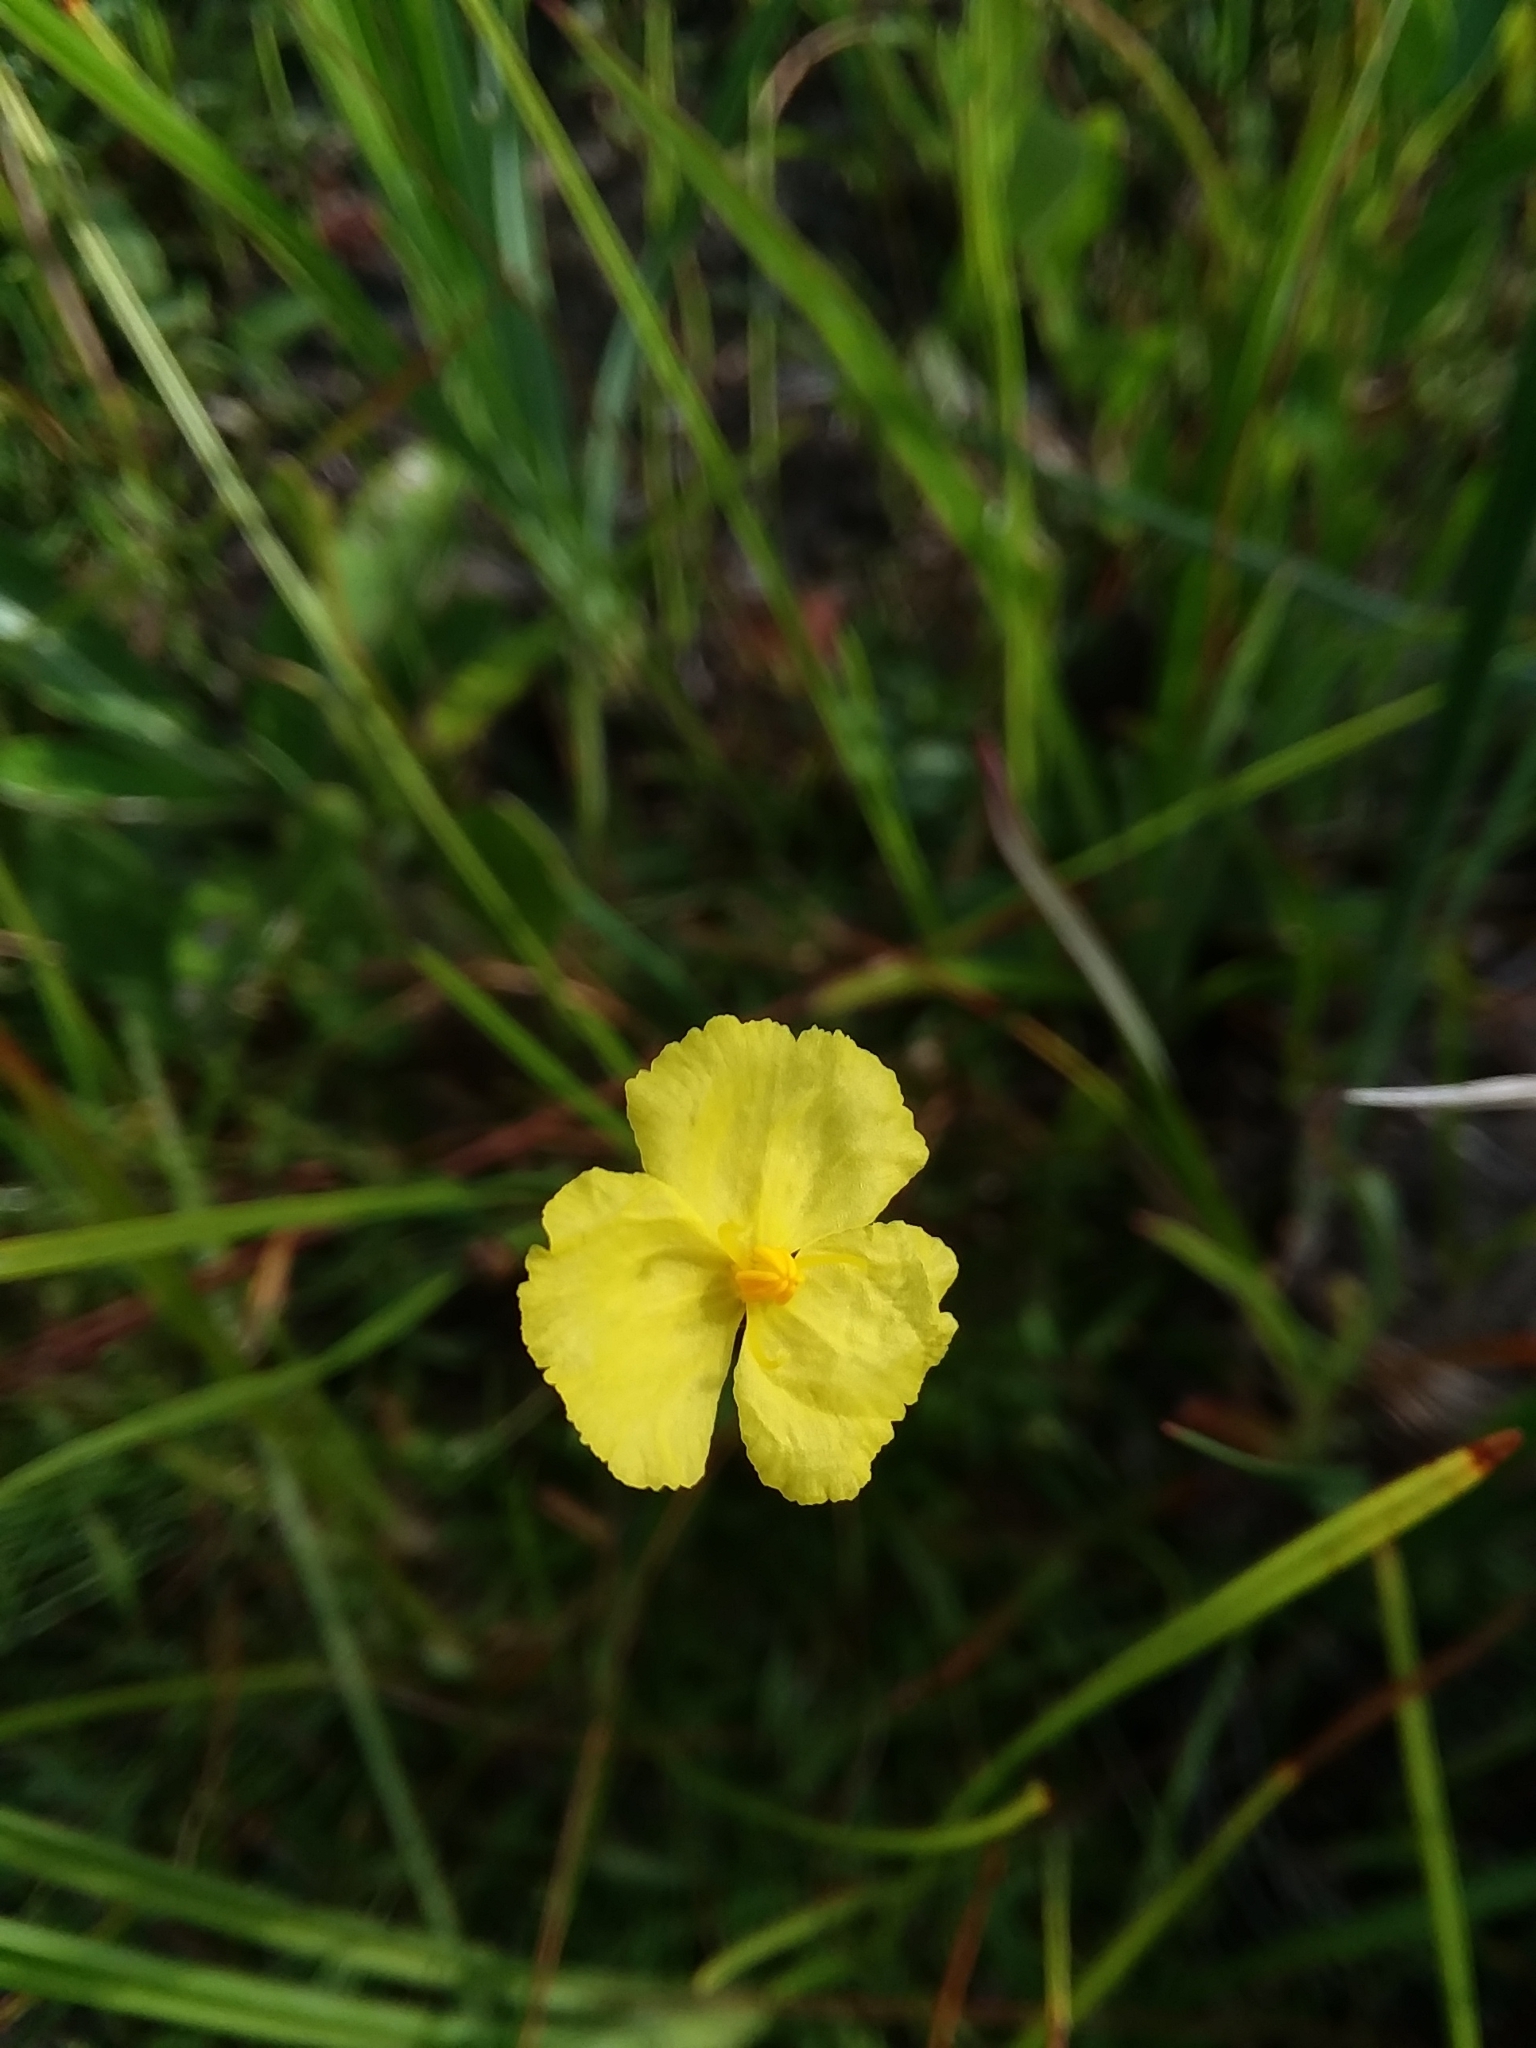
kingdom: Plantae
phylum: Tracheophyta
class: Liliopsida
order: Poales
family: Xyridaceae
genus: Xyris
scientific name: Xyris baldwiniana
